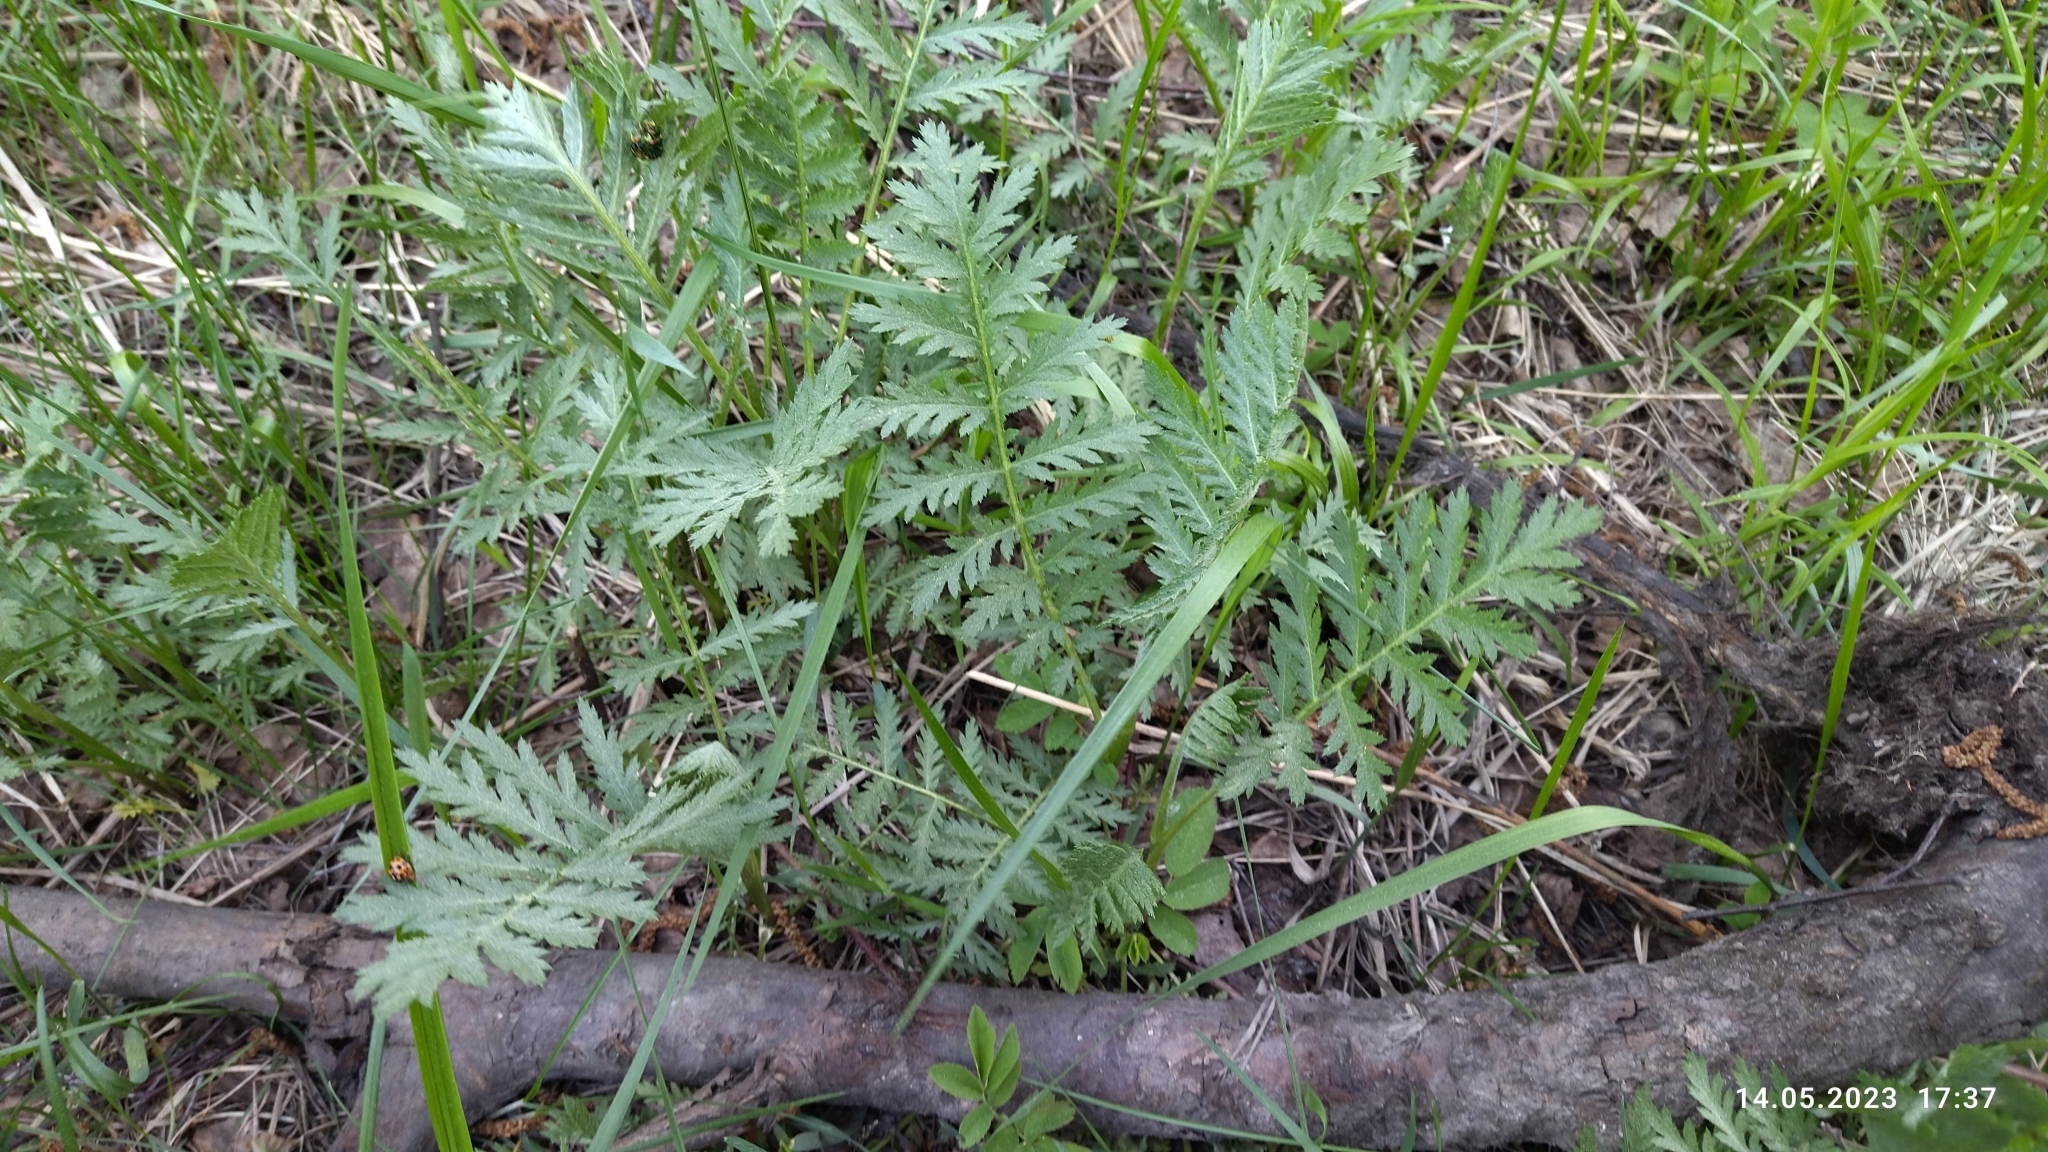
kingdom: Plantae
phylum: Tracheophyta
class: Magnoliopsida
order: Asterales
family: Asteraceae
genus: Tanacetum
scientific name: Tanacetum vulgare
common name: Common tansy
